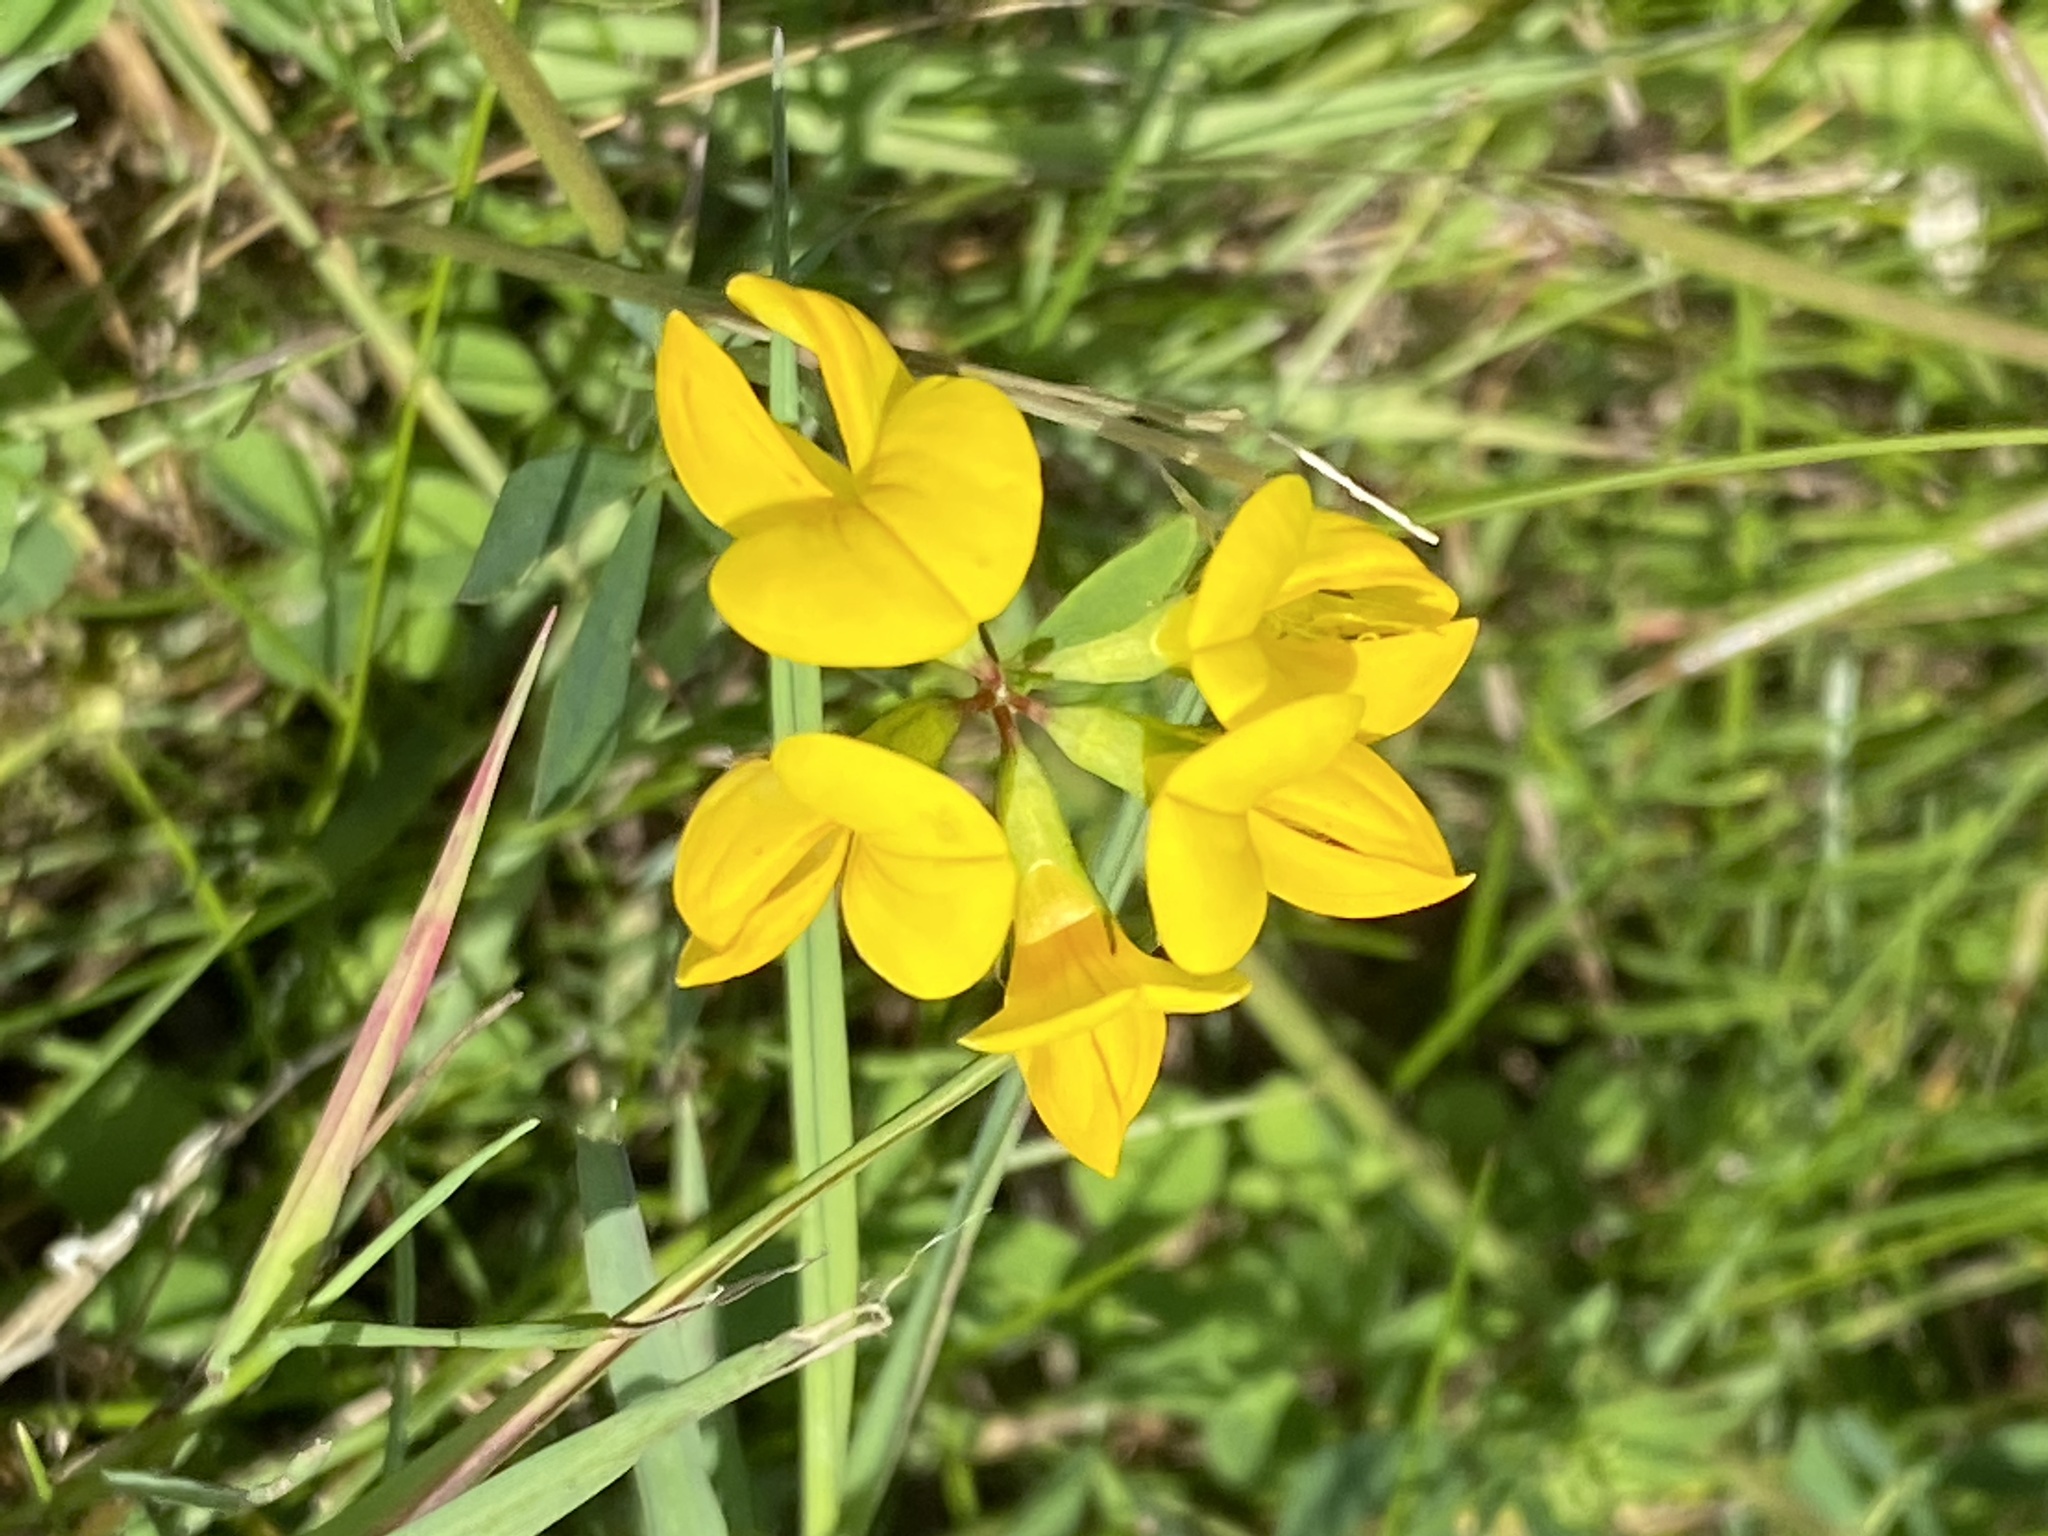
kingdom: Plantae
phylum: Tracheophyta
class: Magnoliopsida
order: Fabales
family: Fabaceae
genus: Lotus
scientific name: Lotus corniculatus
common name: Common bird's-foot-trefoil
